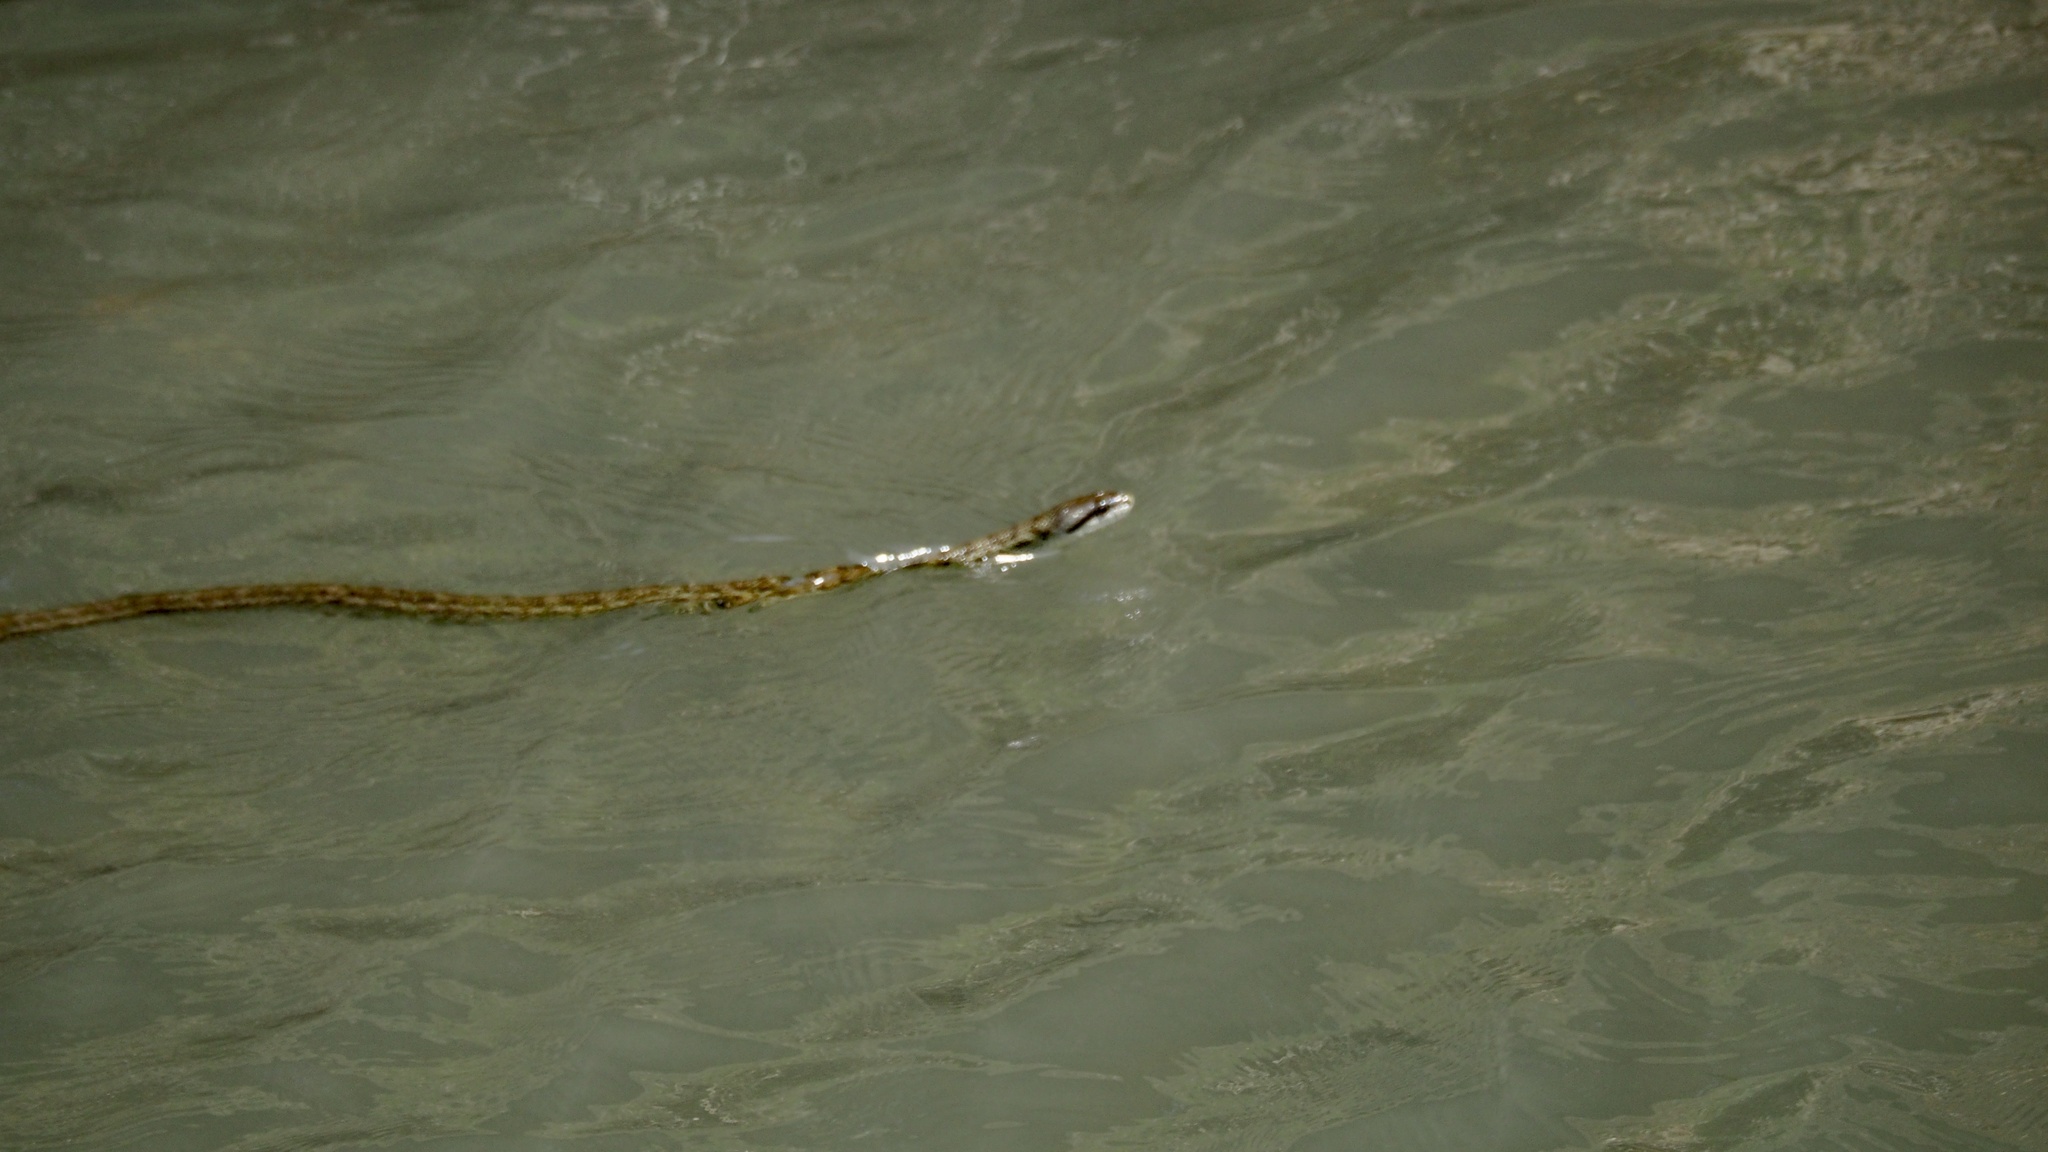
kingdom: Animalia
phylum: Chordata
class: Squamata
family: Colubridae
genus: Elaphe
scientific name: Elaphe climacophora
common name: Japanese ratsnake
